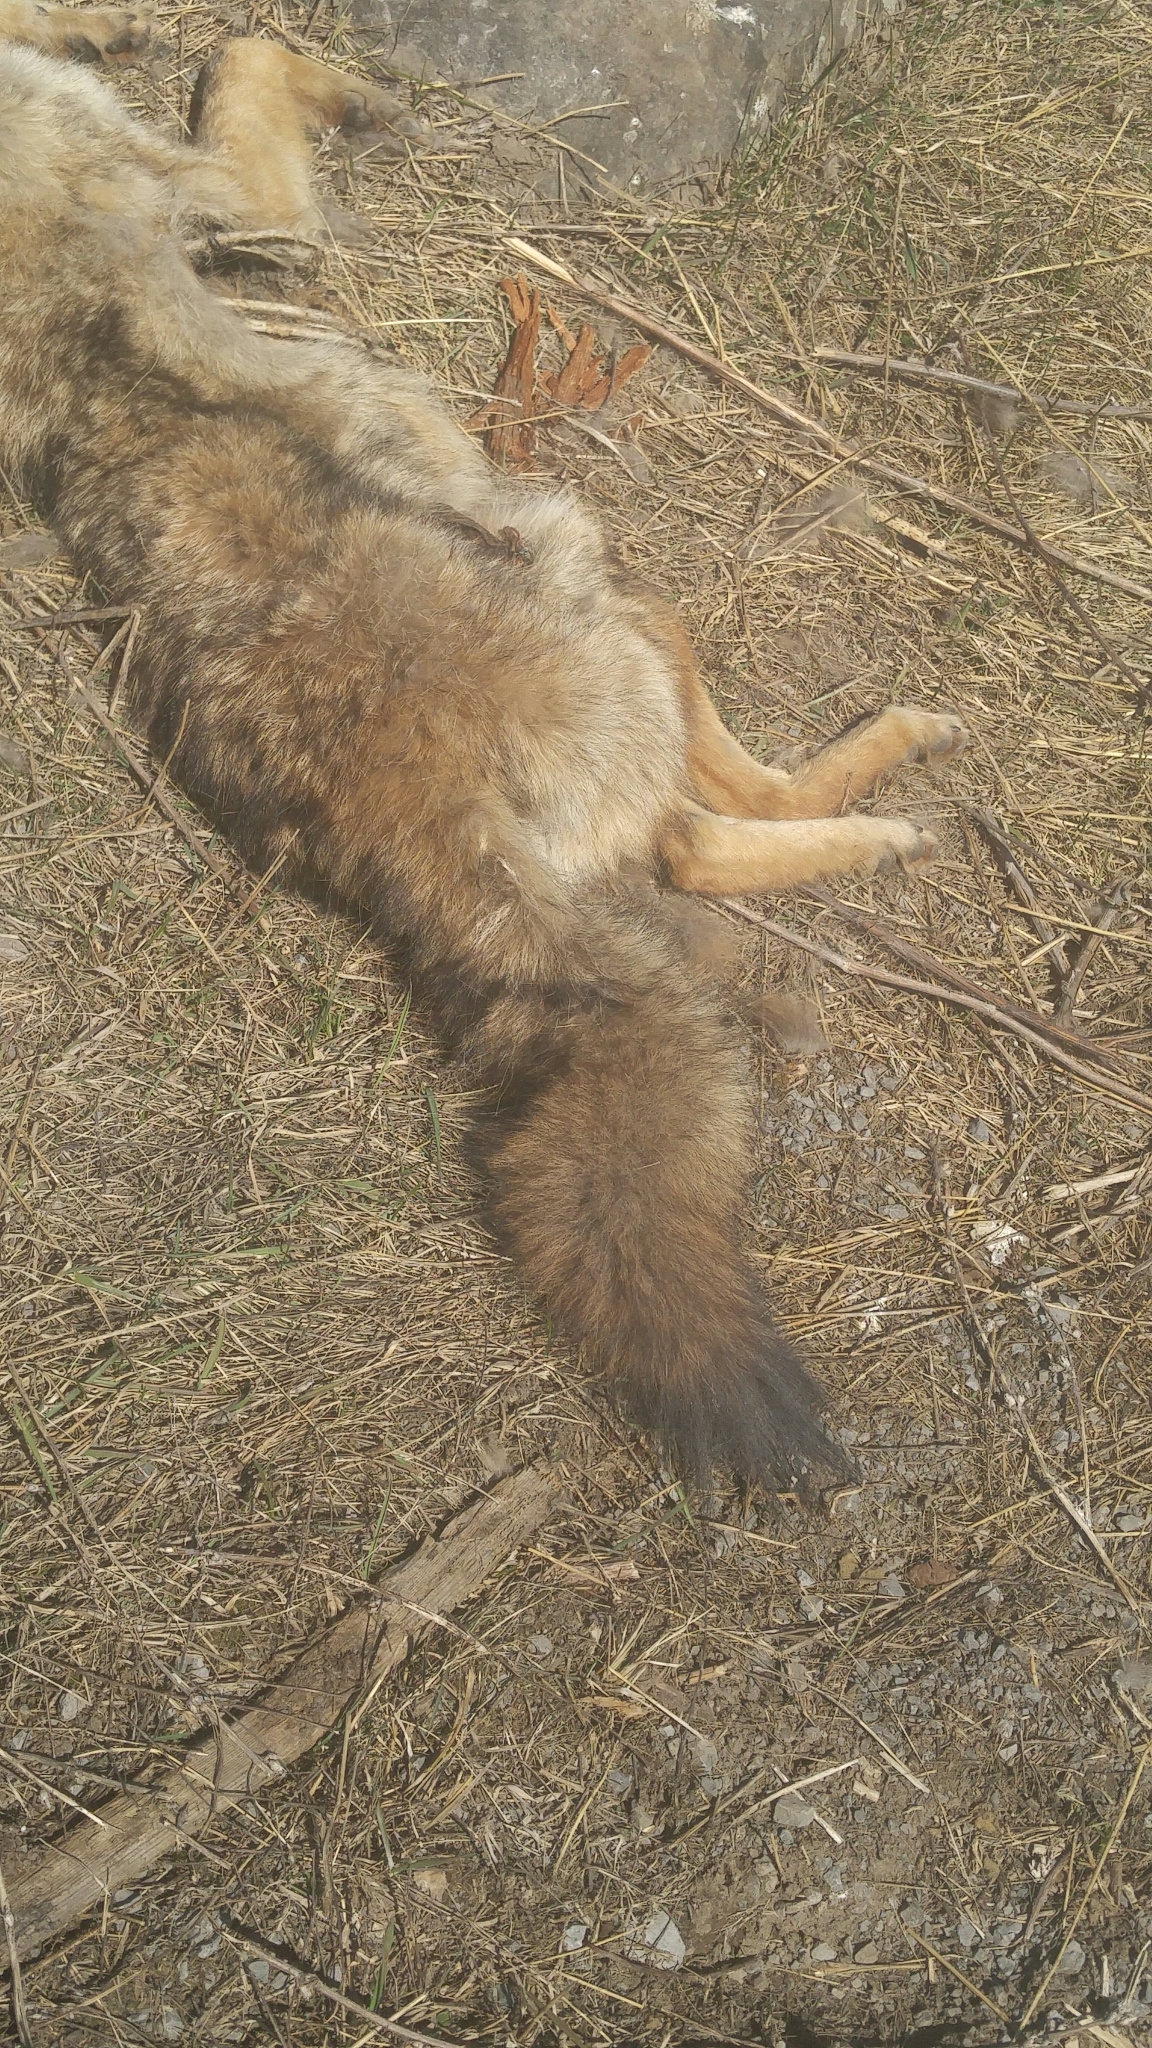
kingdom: Animalia
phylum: Chordata
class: Mammalia
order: Carnivora
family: Canidae
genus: Canis
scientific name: Canis latrans
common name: Coyote
